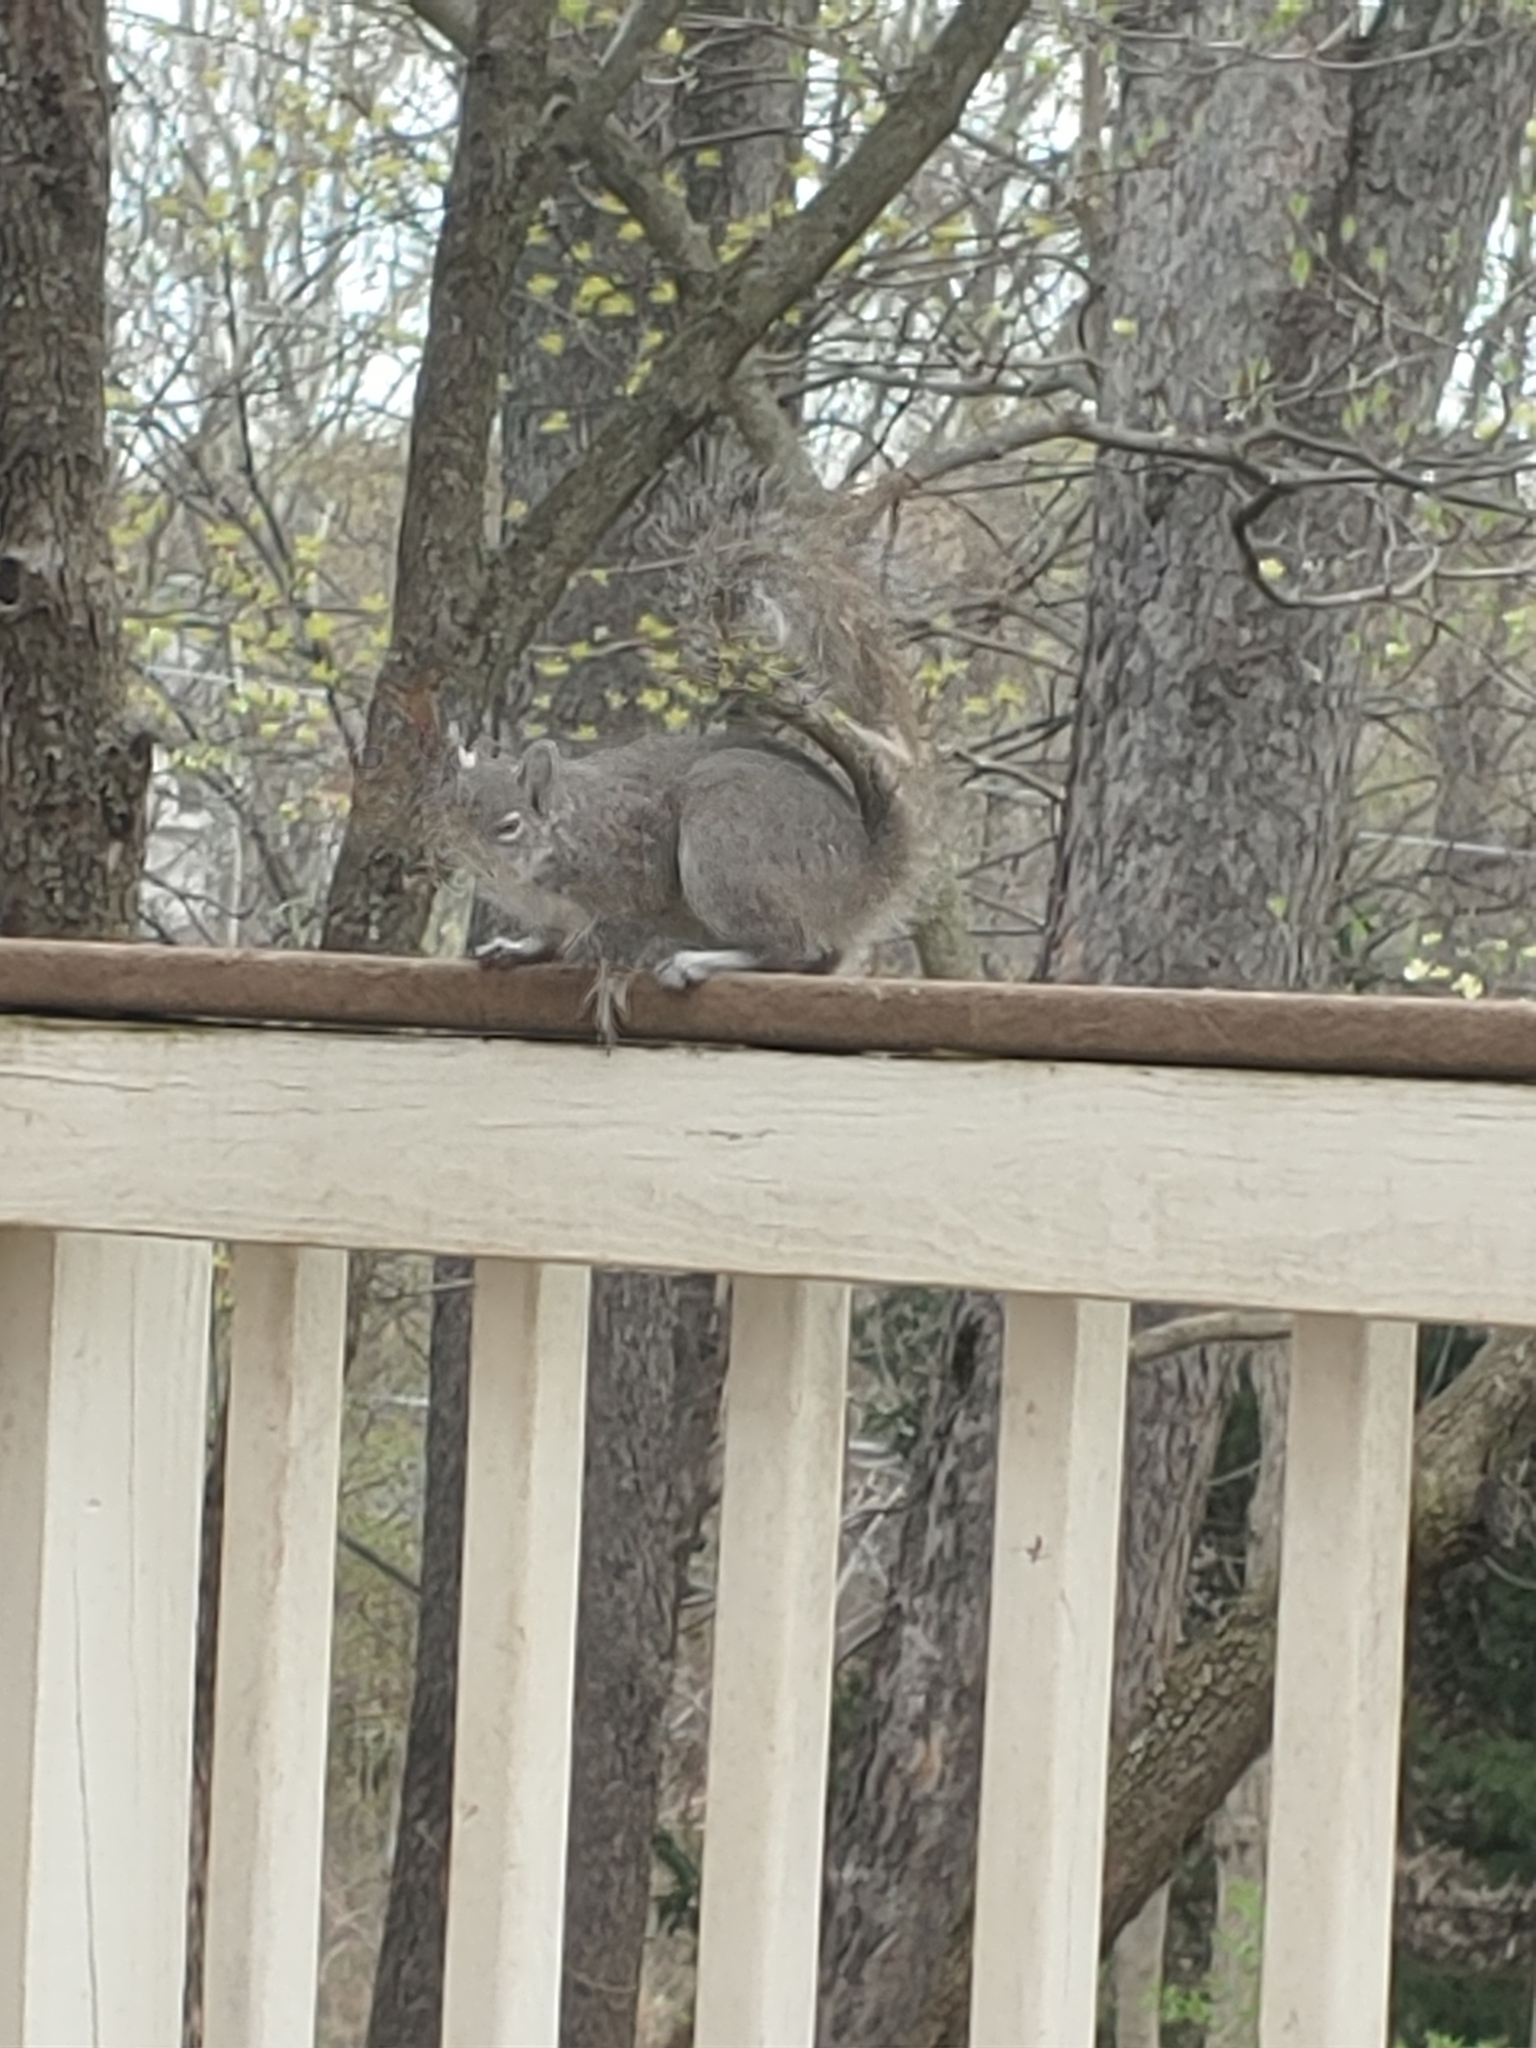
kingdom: Animalia
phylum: Chordata
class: Mammalia
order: Rodentia
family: Sciuridae
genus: Sciurus
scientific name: Sciurus carolinensis
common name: Eastern gray squirrel
